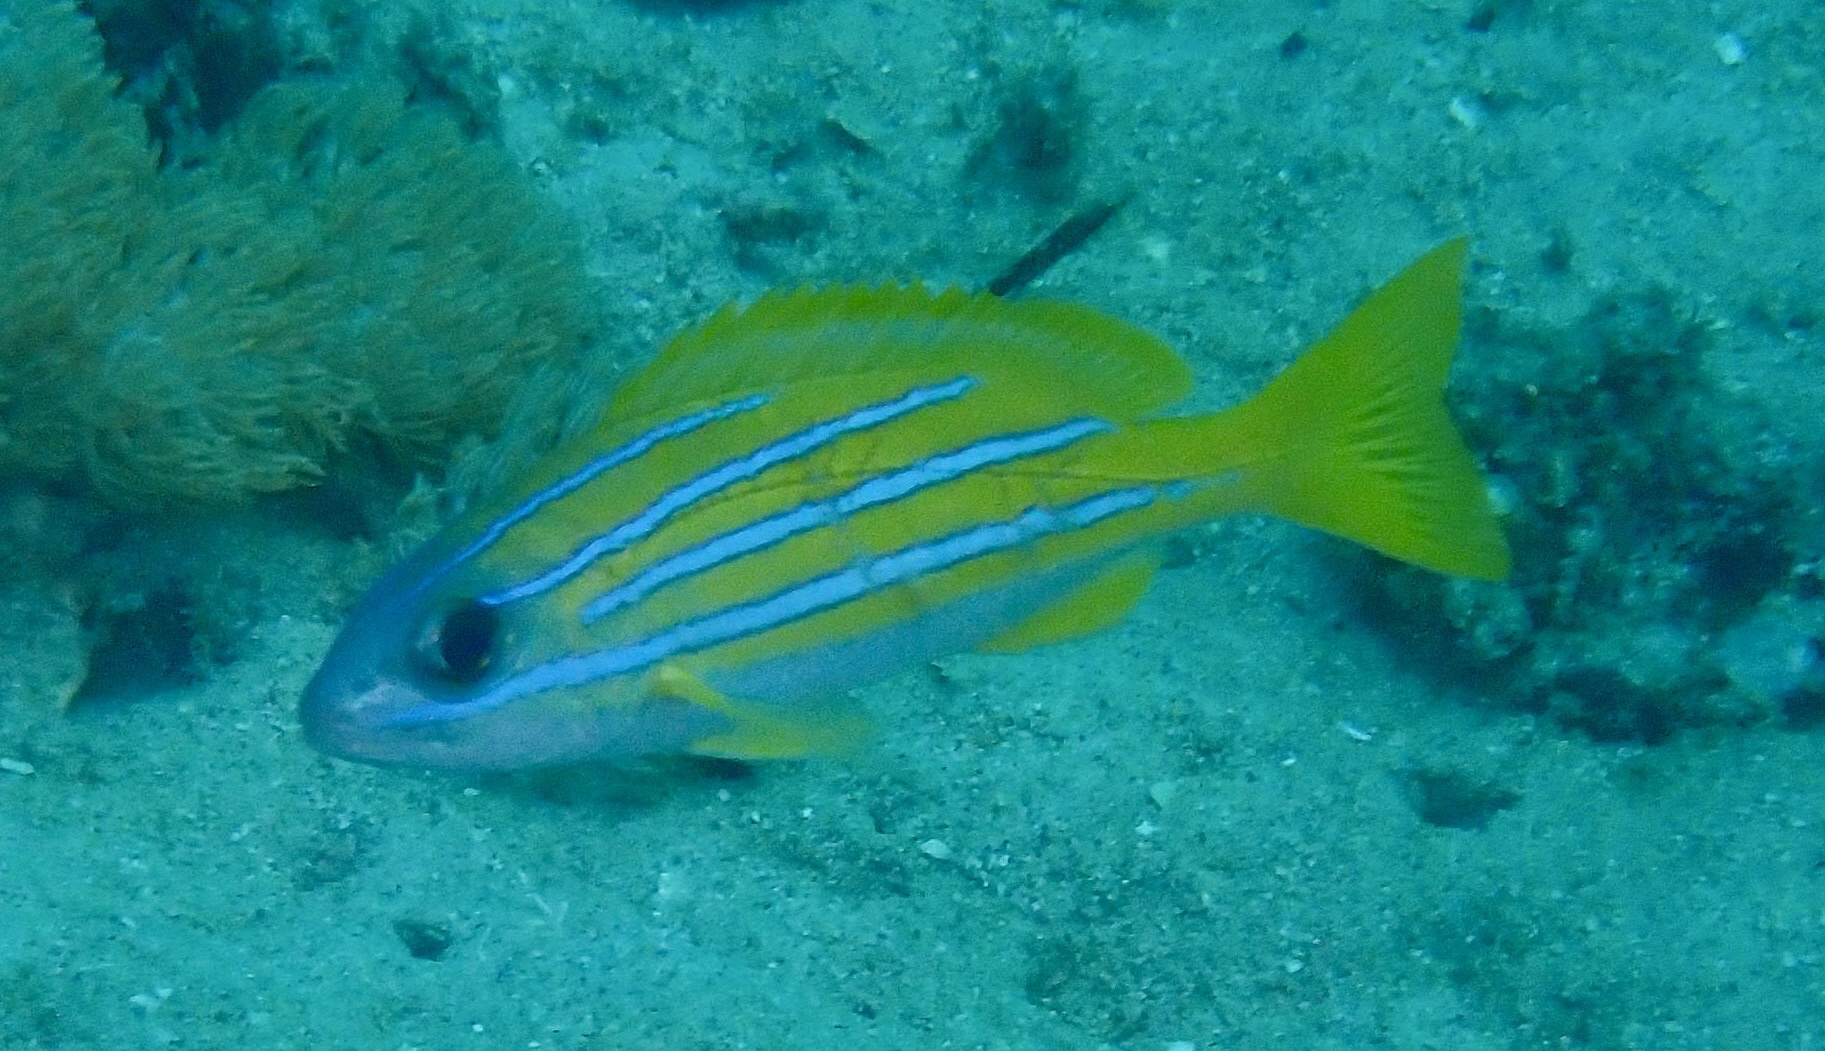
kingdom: Animalia
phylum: Chordata
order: Perciformes
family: Lutjanidae
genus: Lutjanus
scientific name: Lutjanus kasmira
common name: Common bluestripe snapper
